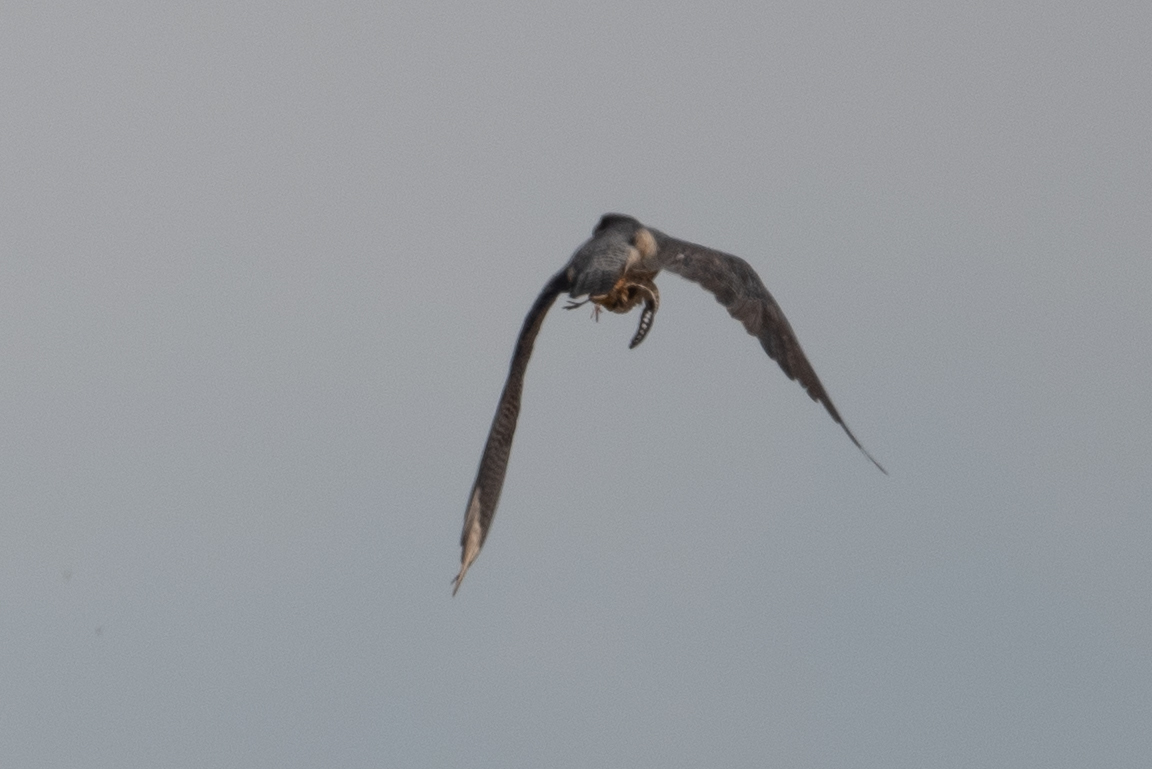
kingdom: Animalia
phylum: Chordata
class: Aves
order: Falconiformes
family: Falconidae
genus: Falco
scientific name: Falco peregrinus
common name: Peregrine falcon
